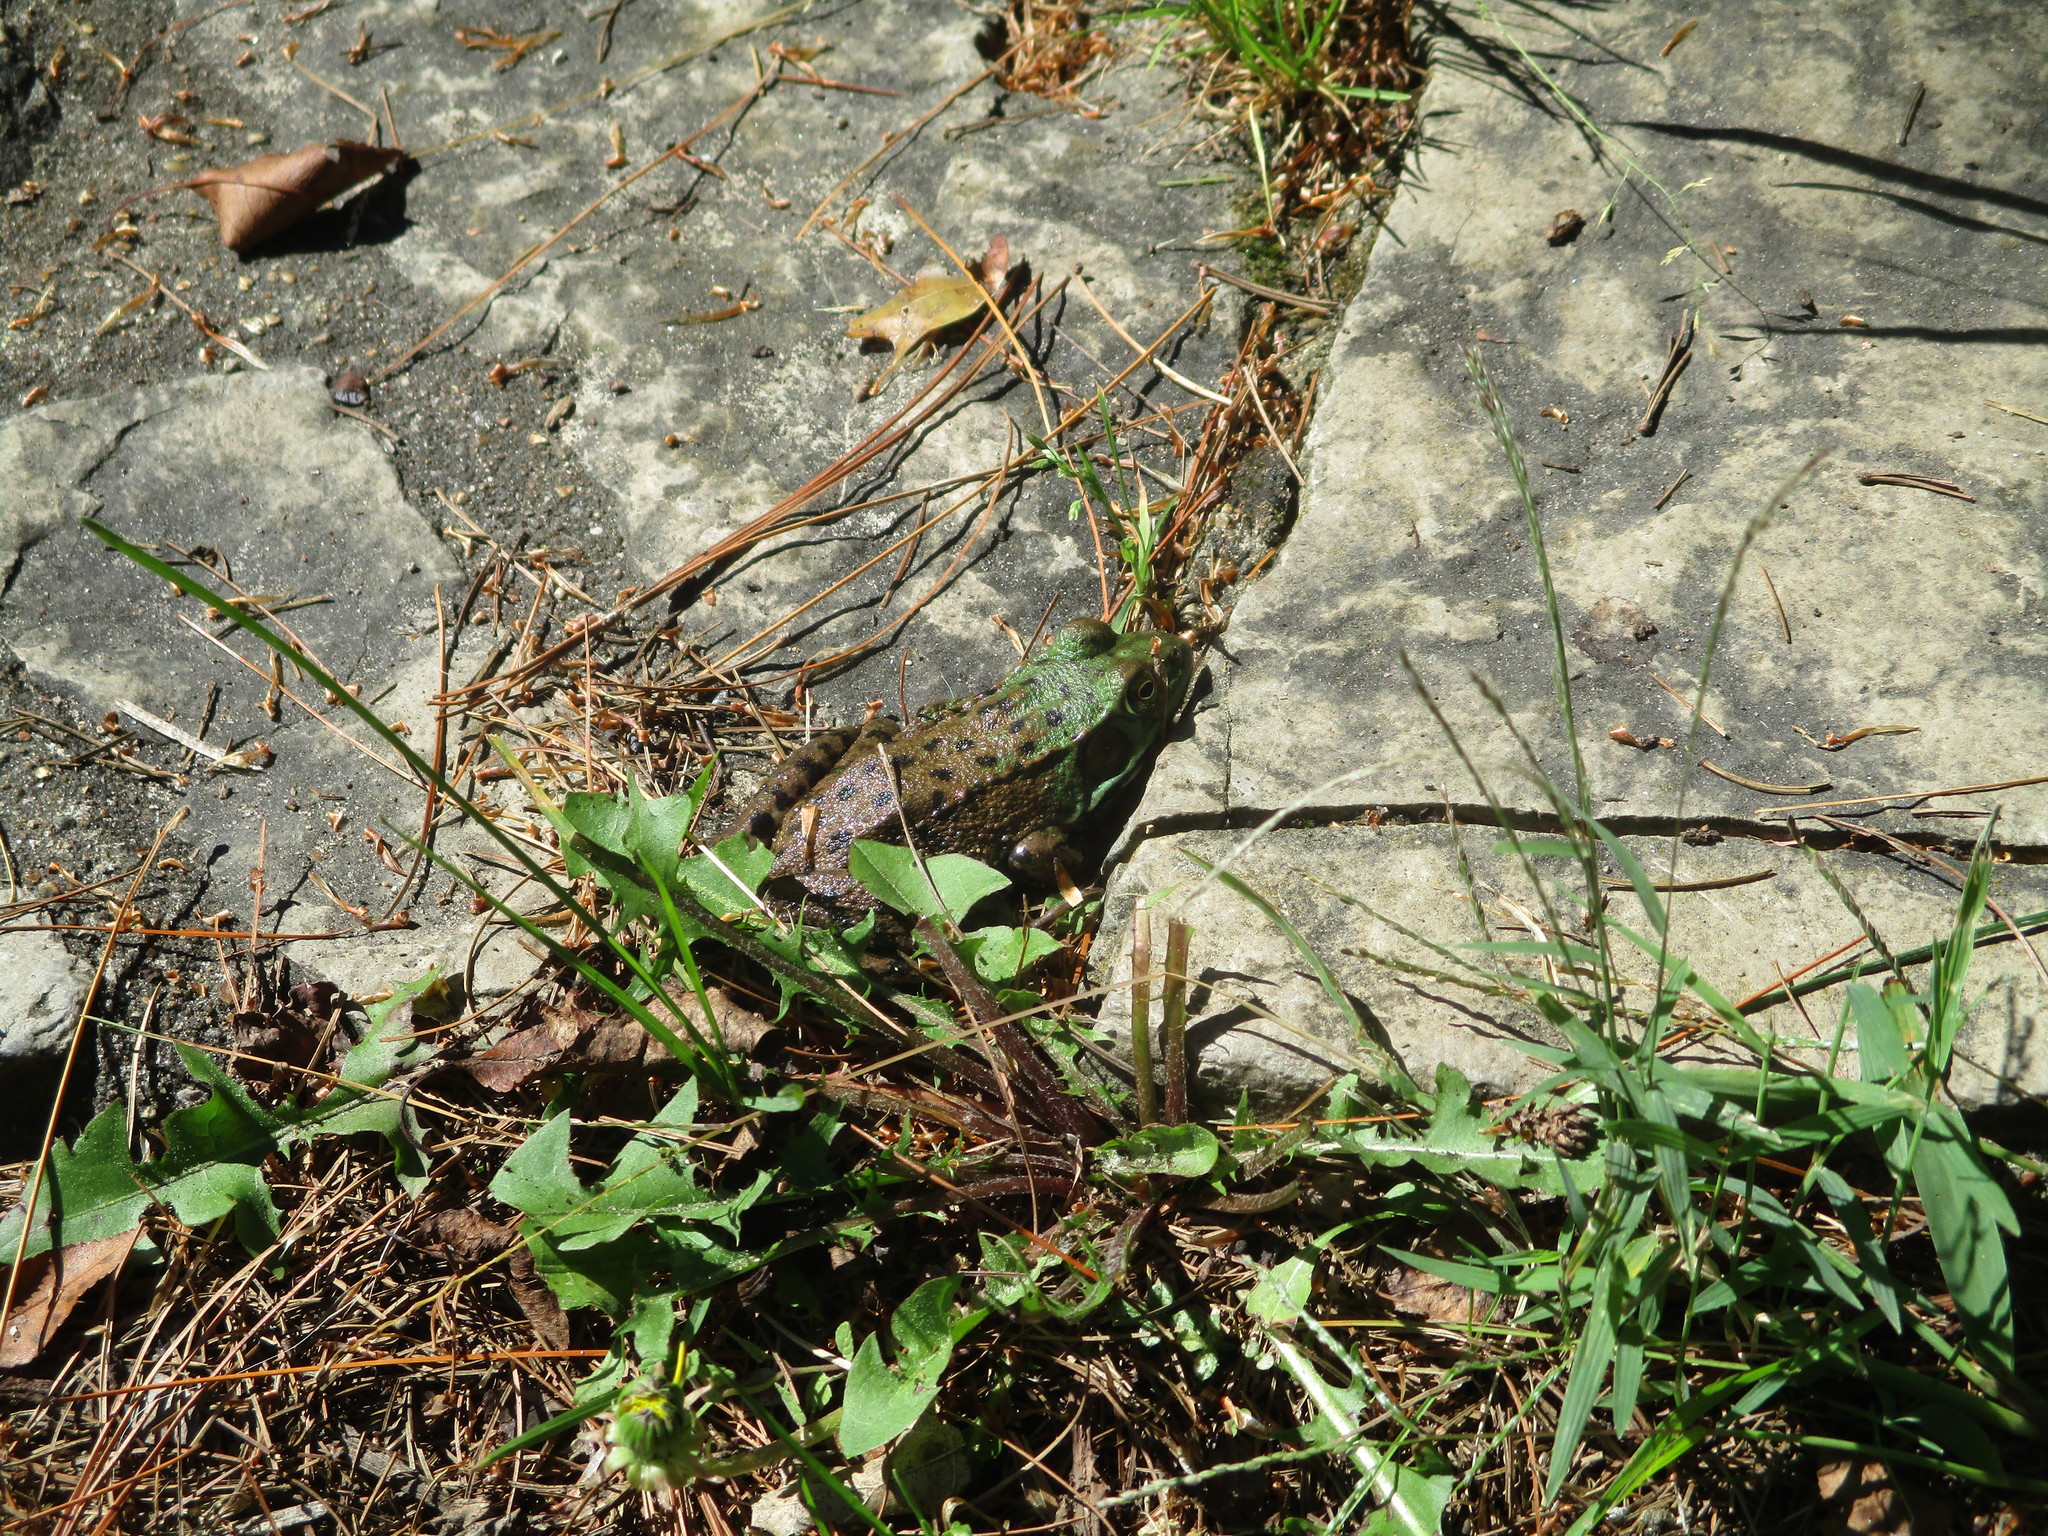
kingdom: Animalia
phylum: Chordata
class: Amphibia
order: Anura
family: Ranidae
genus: Lithobates
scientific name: Lithobates clamitans
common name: Green frog
